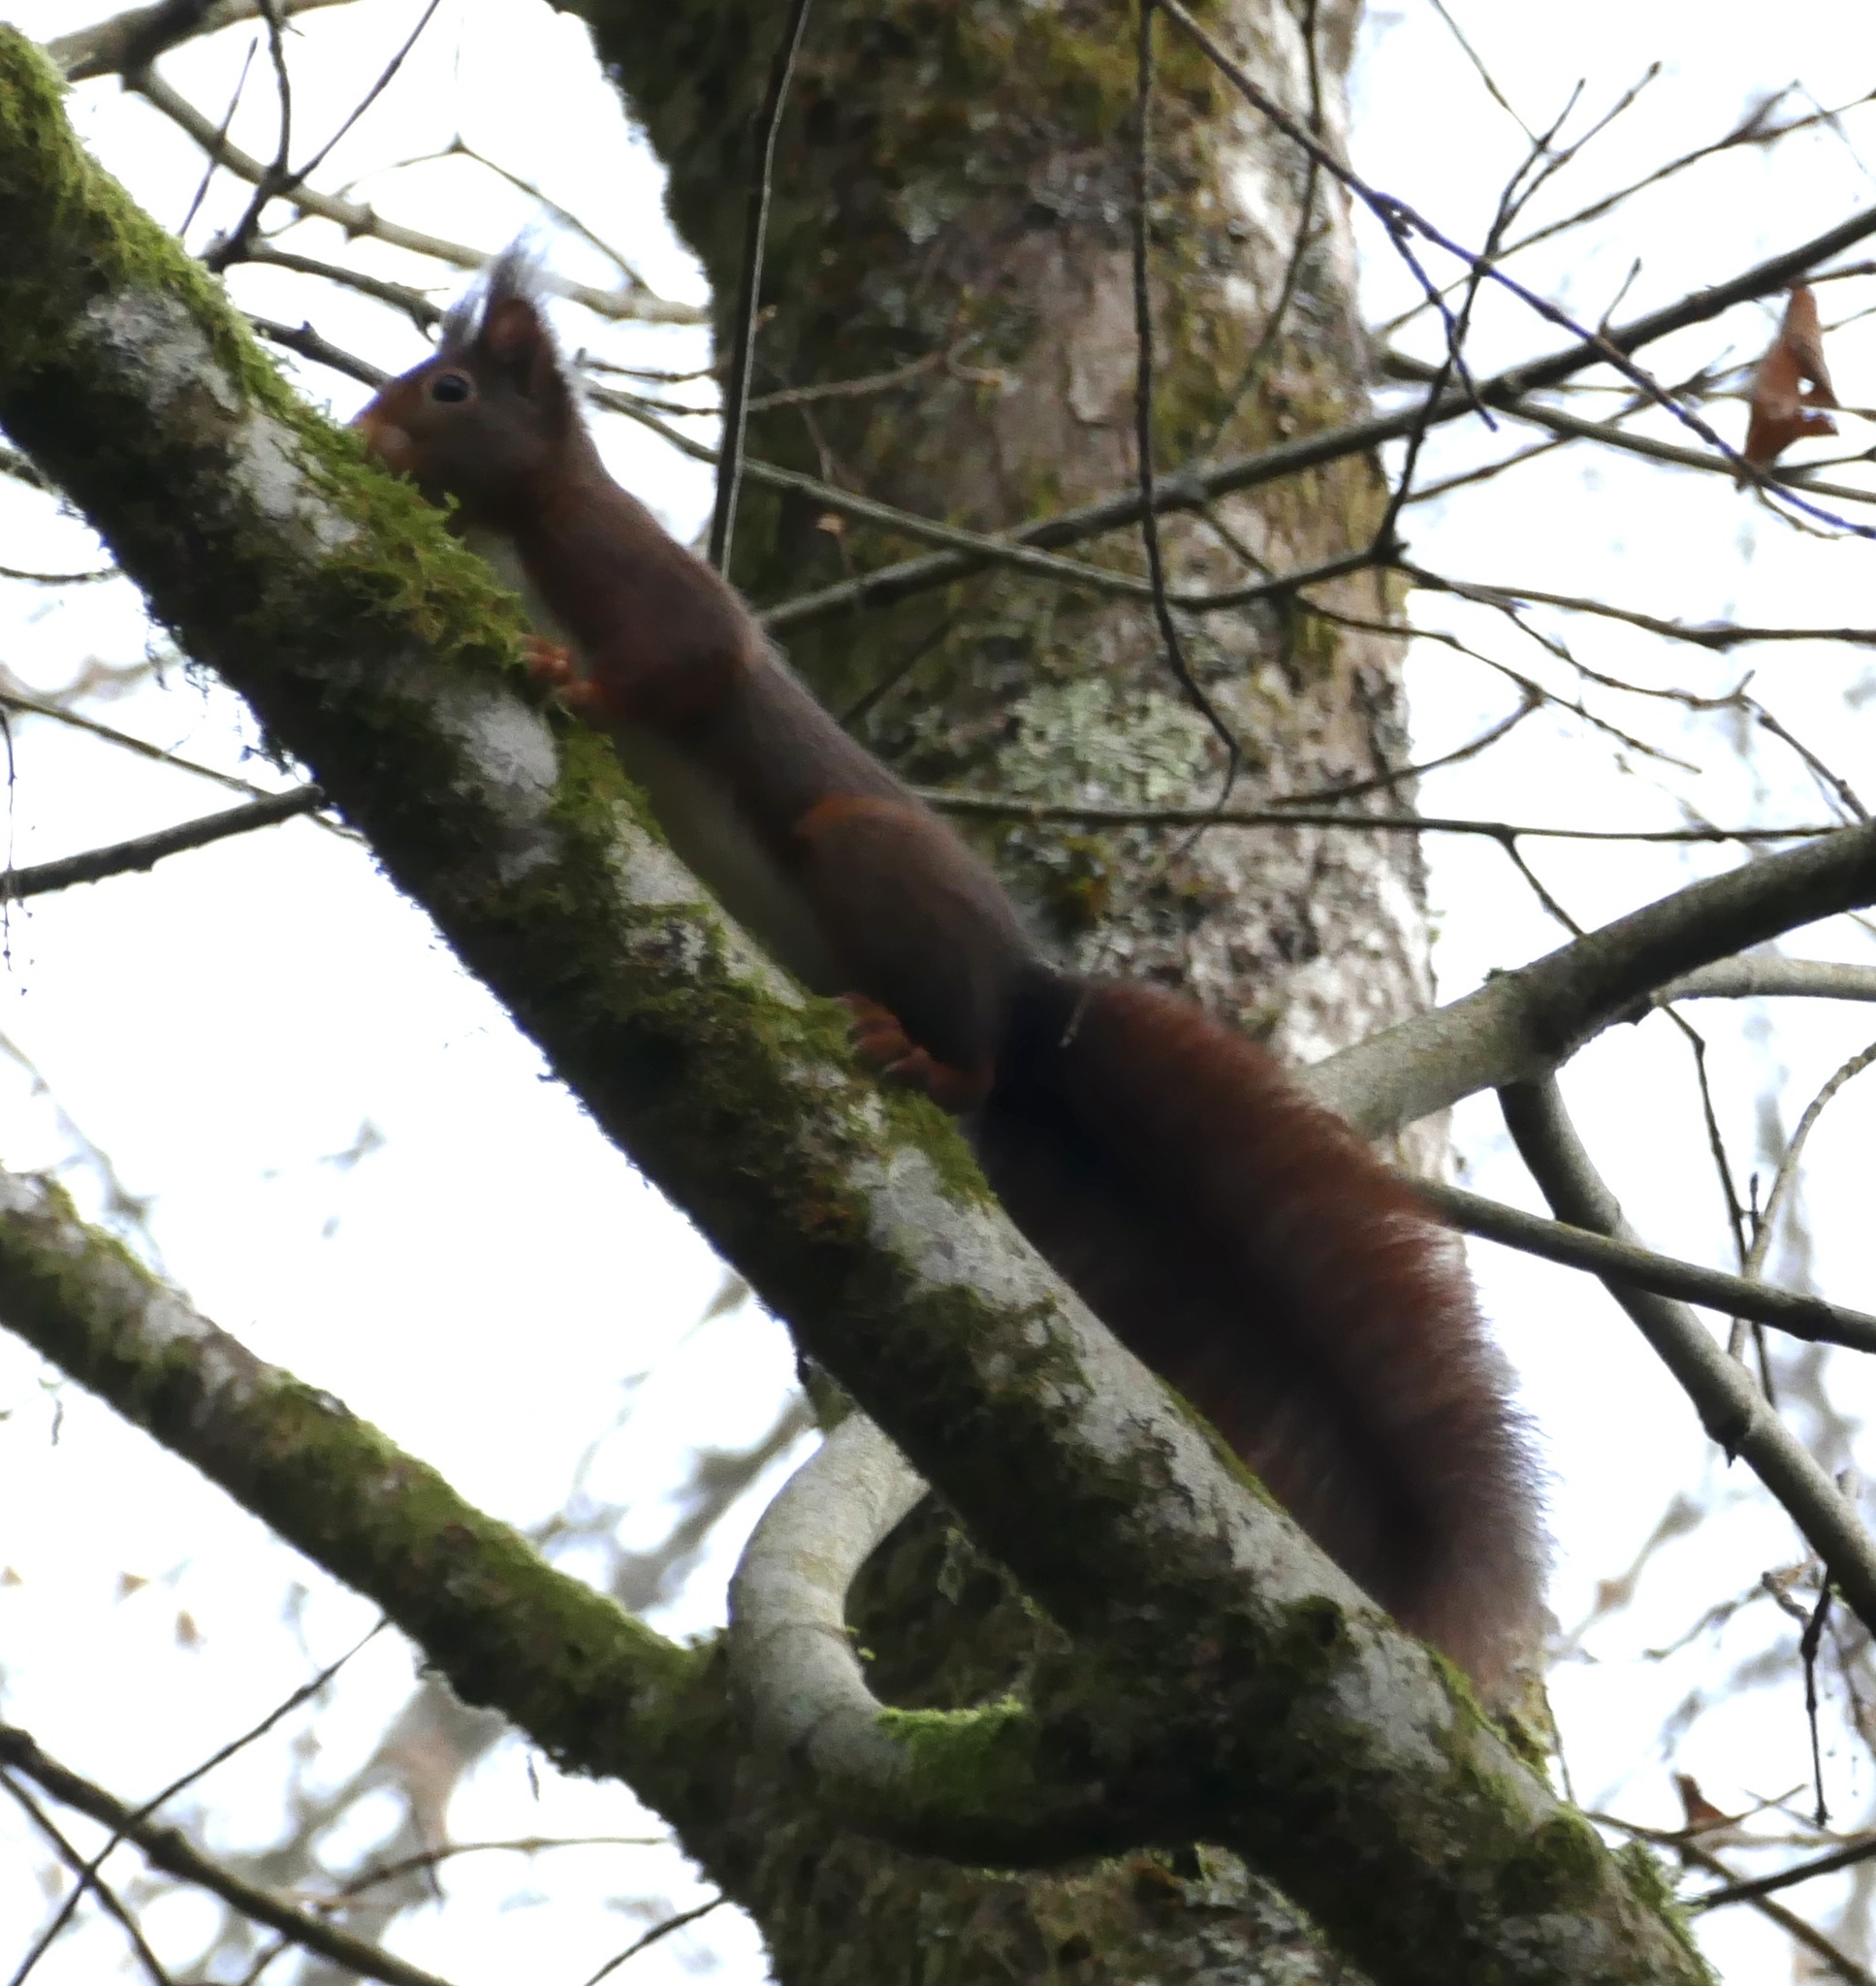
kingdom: Animalia
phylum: Chordata
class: Mammalia
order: Rodentia
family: Sciuridae
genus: Sciurus
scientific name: Sciurus vulgaris
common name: Eurasian red squirrel
